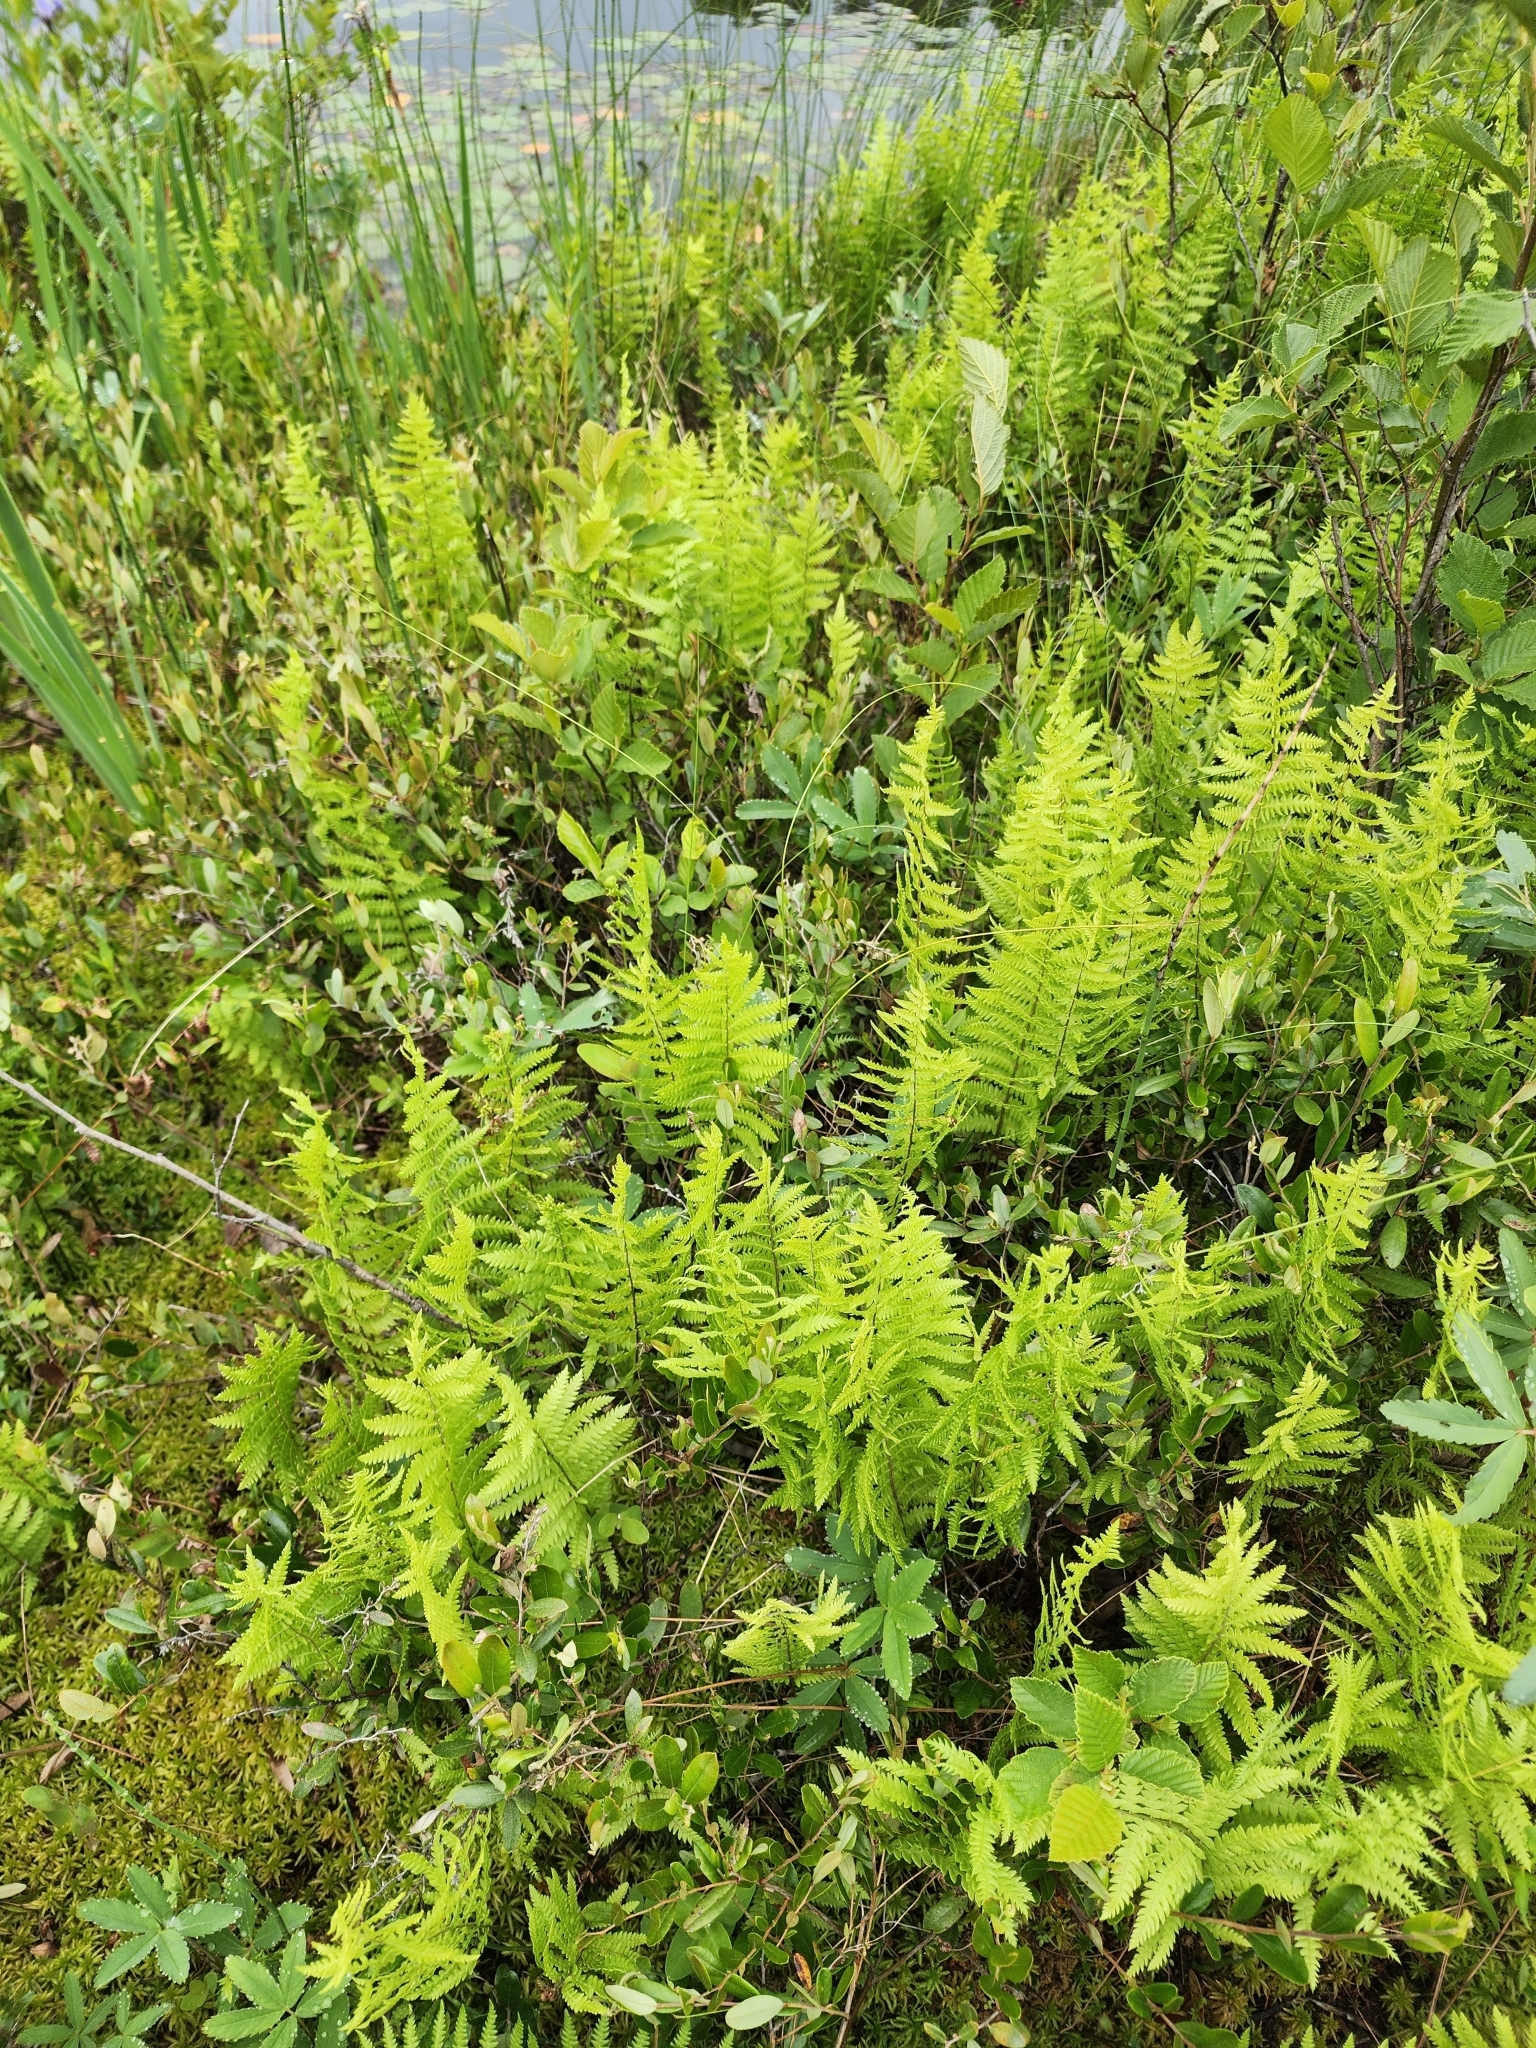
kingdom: Plantae
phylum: Tracheophyta
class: Polypodiopsida
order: Polypodiales
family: Thelypteridaceae
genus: Thelypteris
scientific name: Thelypteris palustris
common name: Marsh fern
